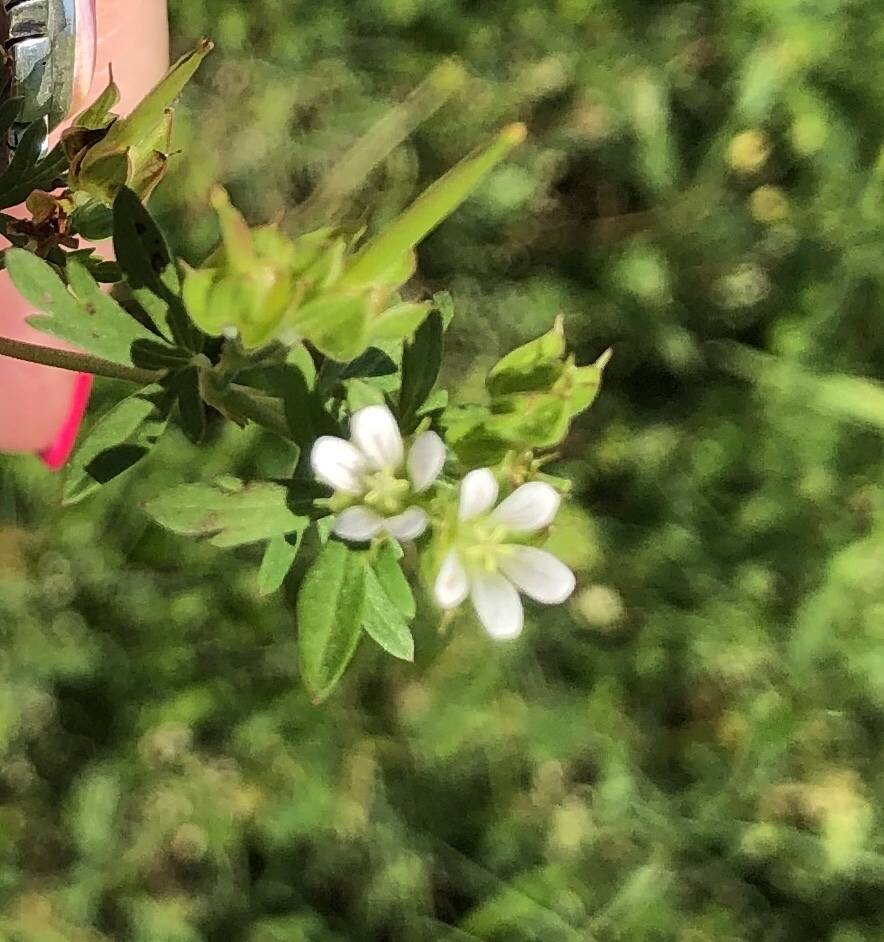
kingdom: Plantae
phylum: Tracheophyta
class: Magnoliopsida
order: Geraniales
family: Geraniaceae
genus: Geranium
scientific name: Geranium carolinianum
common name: Carolina crane's-bill
